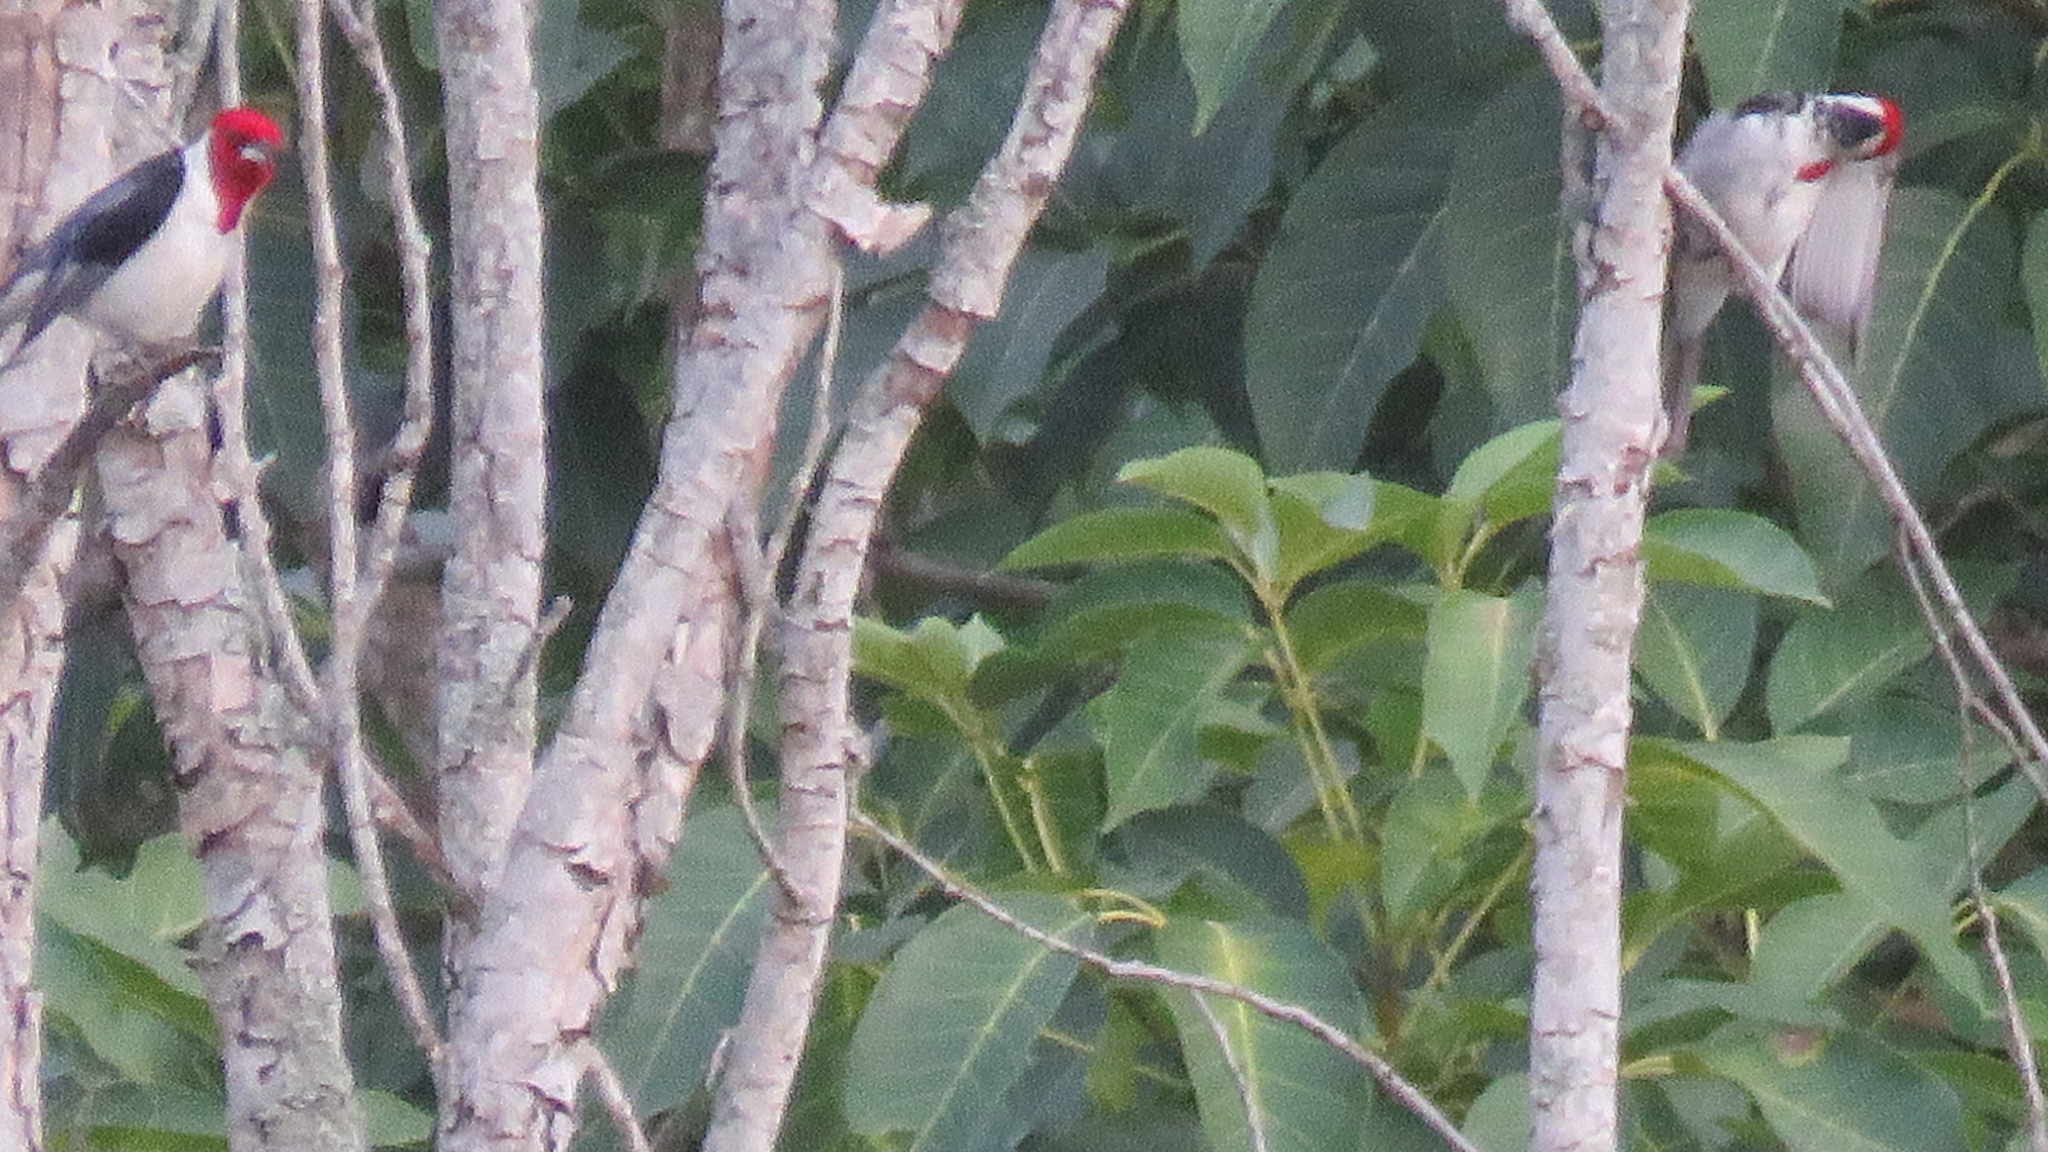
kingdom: Animalia
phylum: Chordata
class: Aves
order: Passeriformes
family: Thraupidae
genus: Paroaria
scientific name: Paroaria dominicana
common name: Red-cowled cardinal
